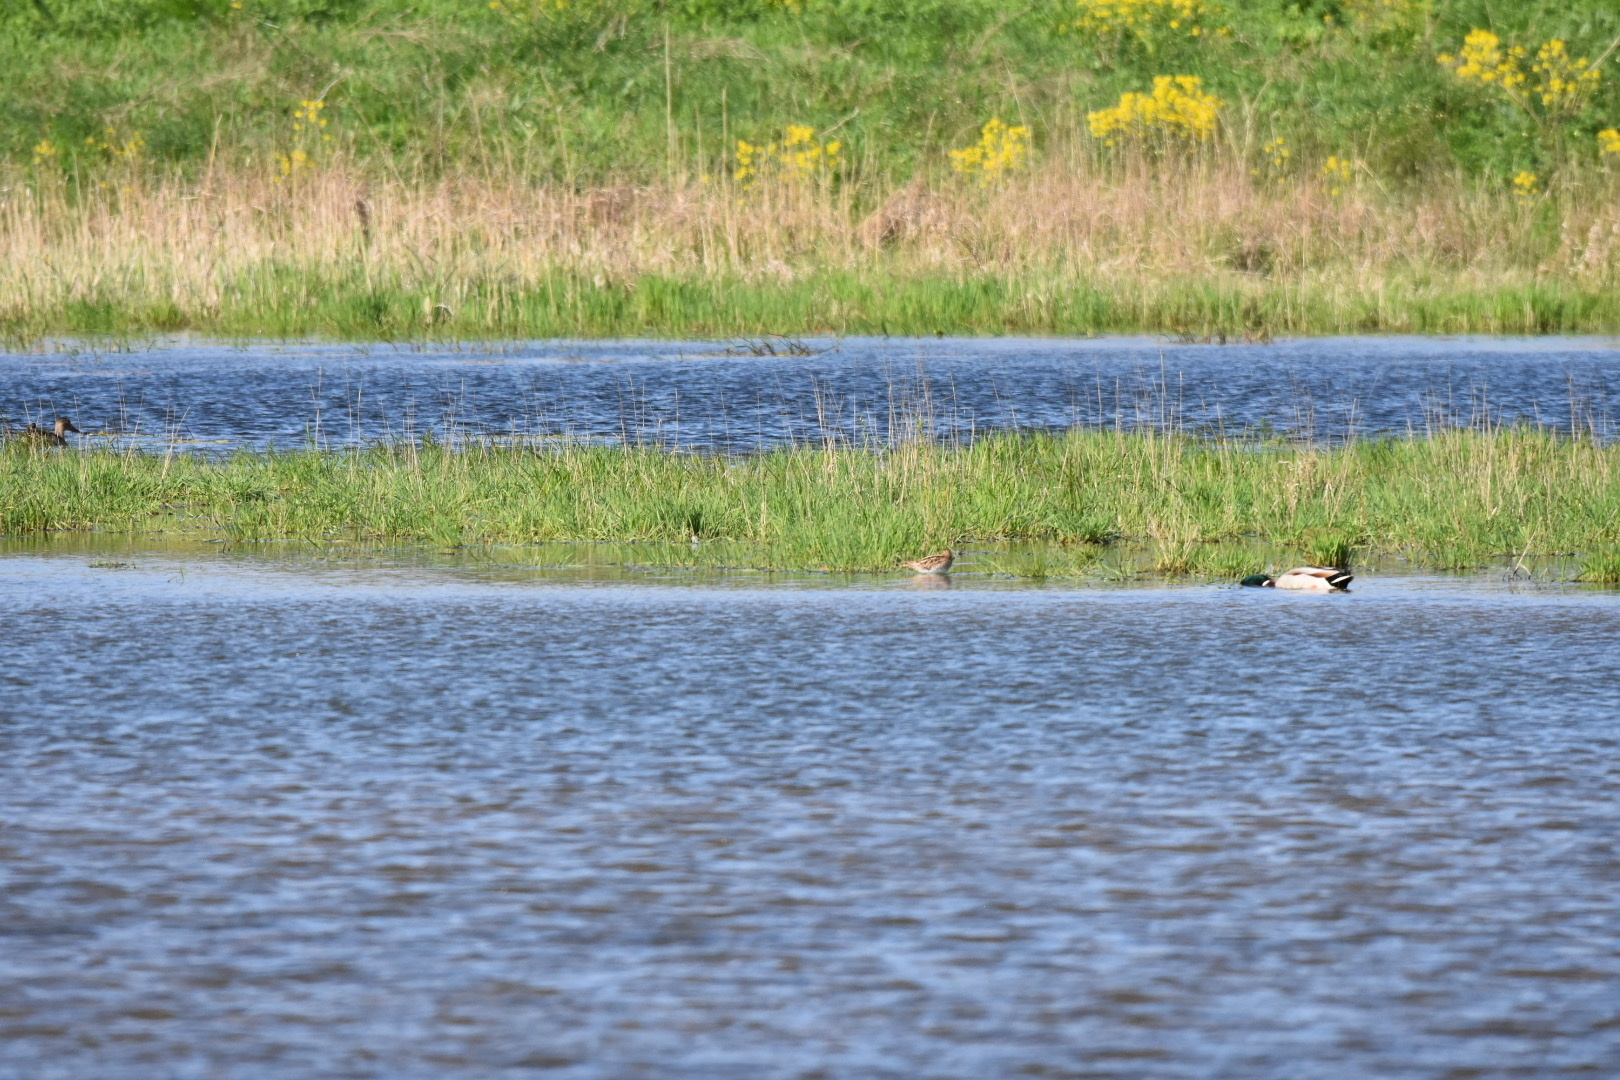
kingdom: Animalia
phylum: Chordata
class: Aves
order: Charadriiformes
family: Scolopacidae
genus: Gallinago
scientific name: Gallinago gallinago
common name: Common snipe
